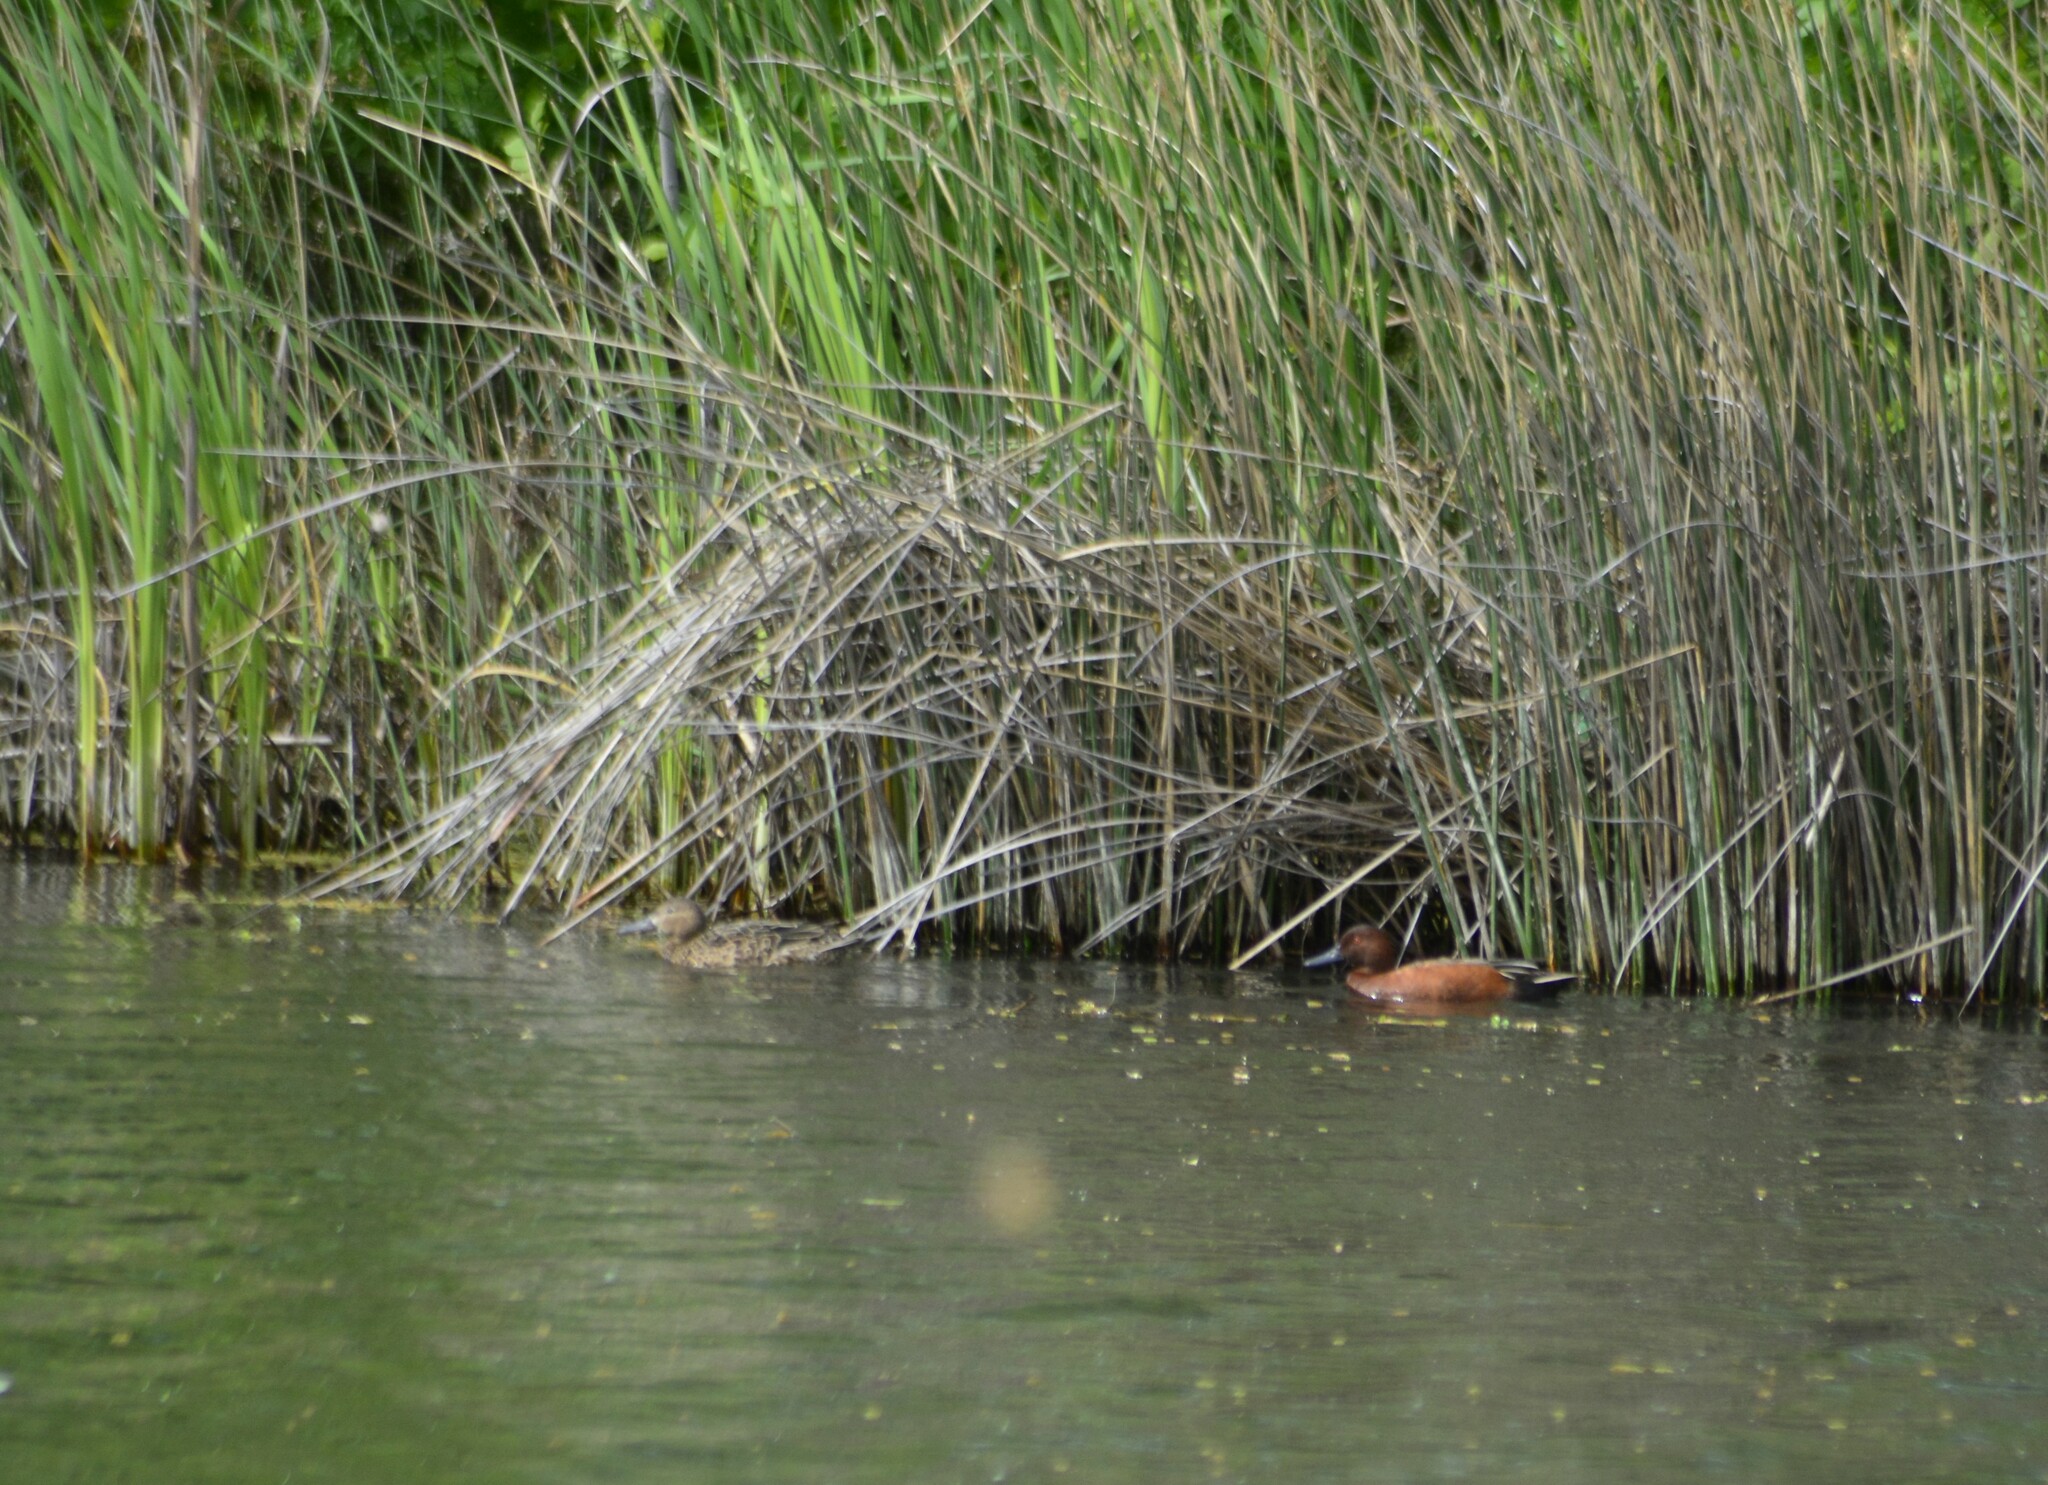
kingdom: Animalia
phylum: Chordata
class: Aves
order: Anseriformes
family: Anatidae
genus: Spatula
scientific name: Spatula cyanoptera
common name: Cinnamon teal
